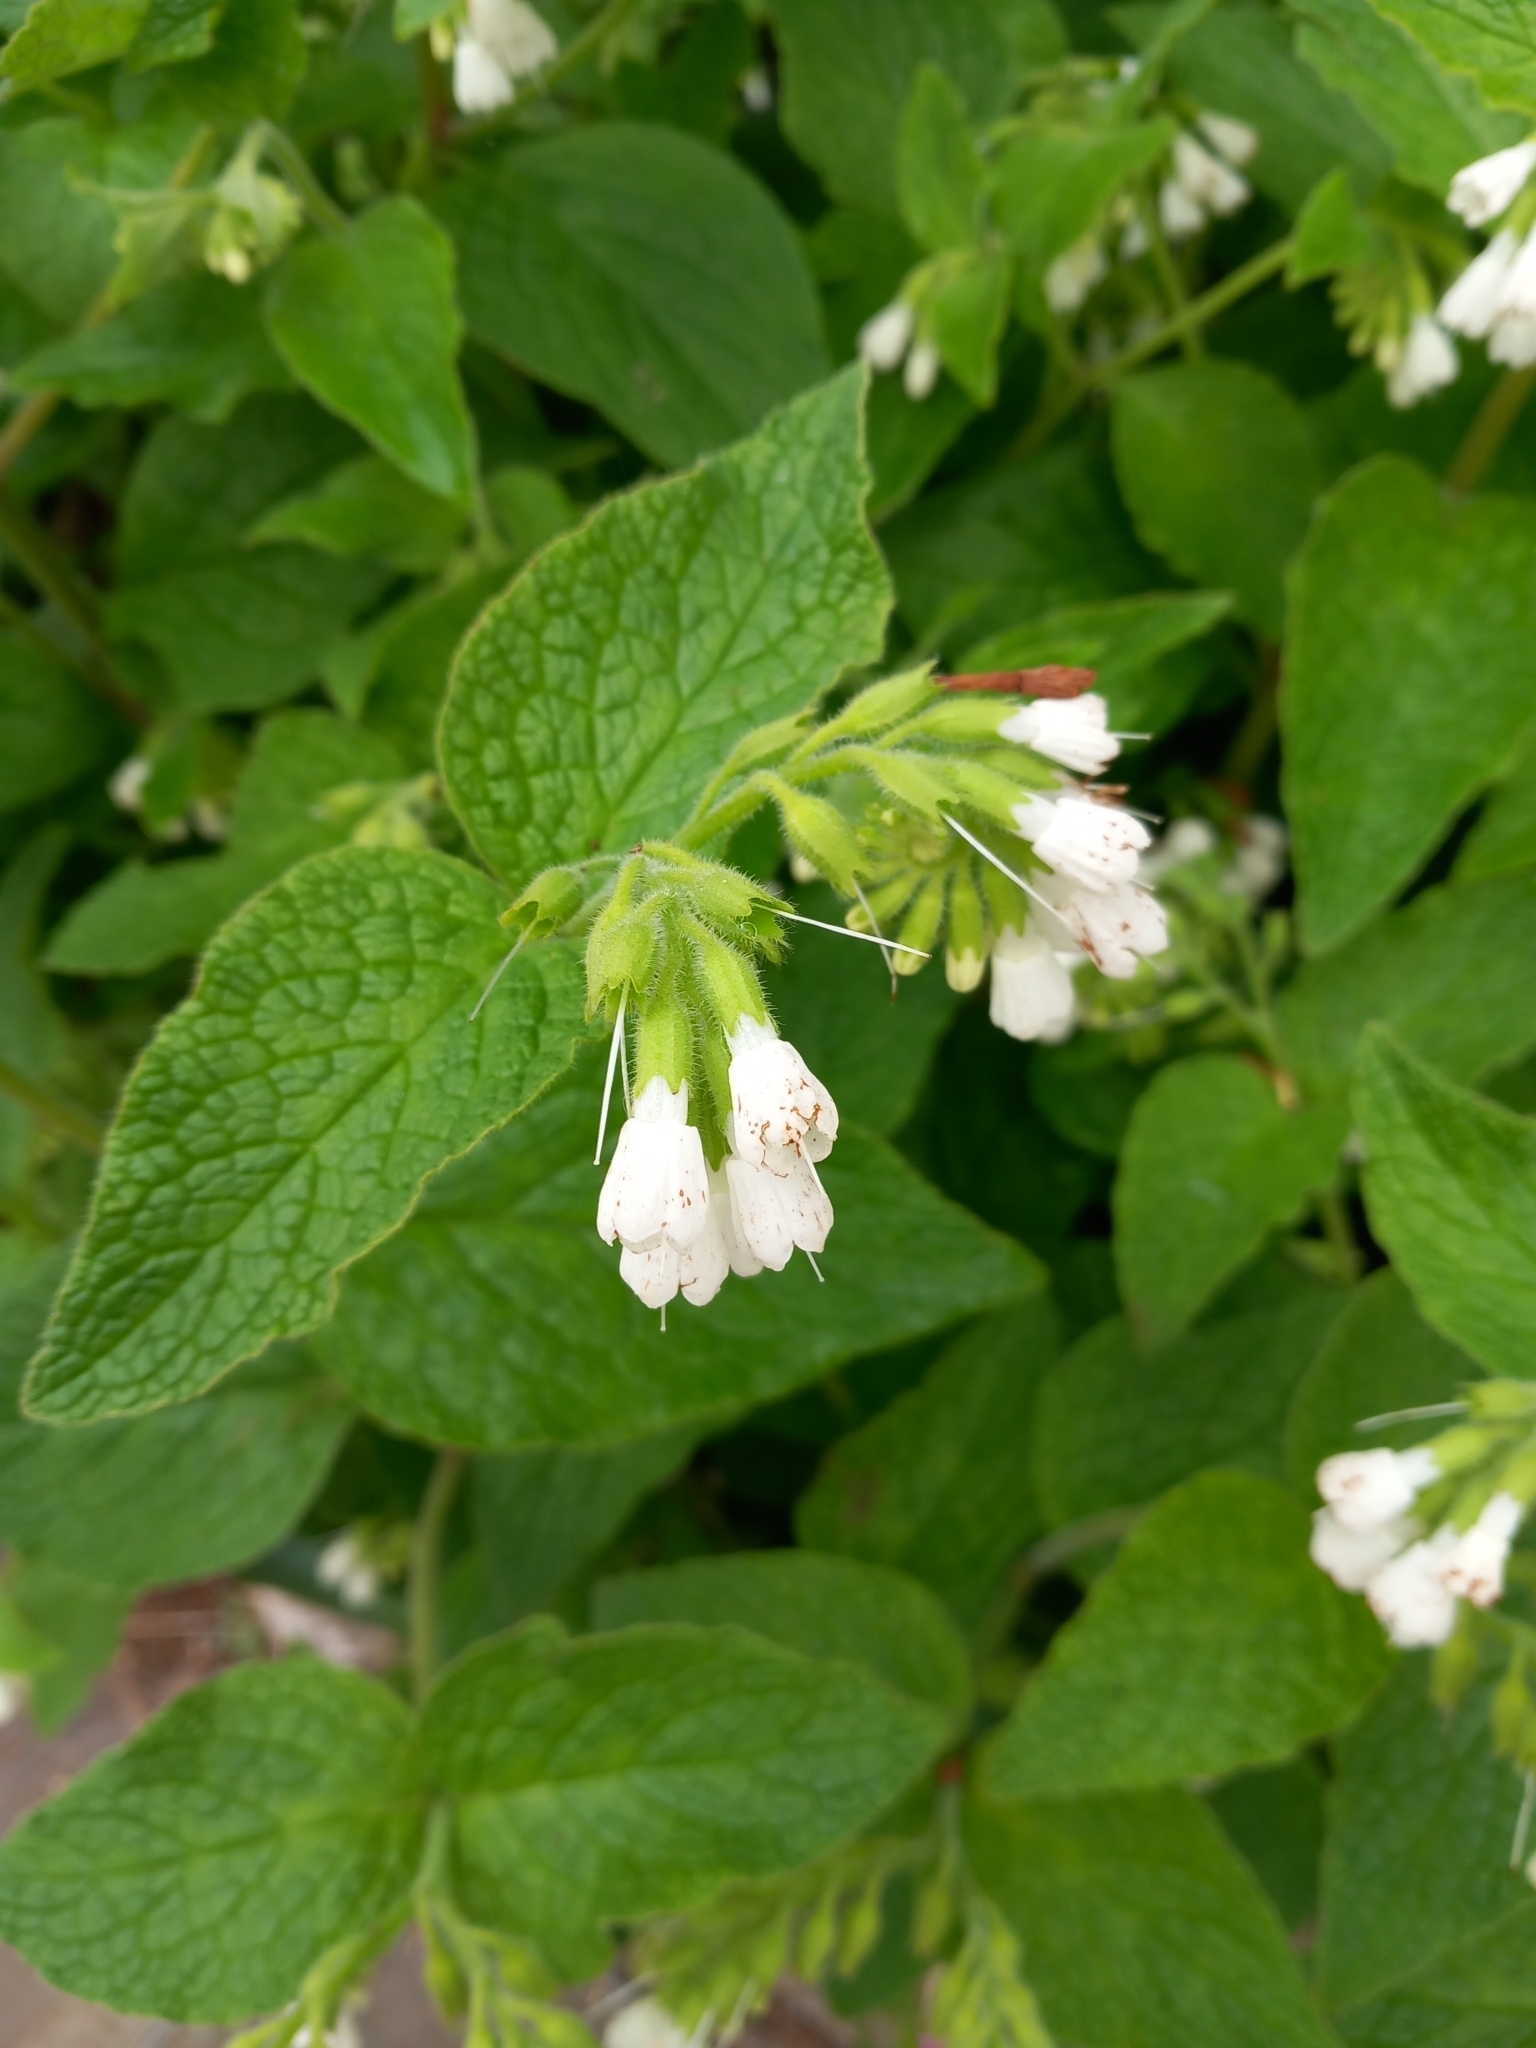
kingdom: Plantae
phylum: Tracheophyta
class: Magnoliopsida
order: Boraginales
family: Boraginaceae
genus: Symphytum
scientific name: Symphytum orientale
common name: White comfrey
